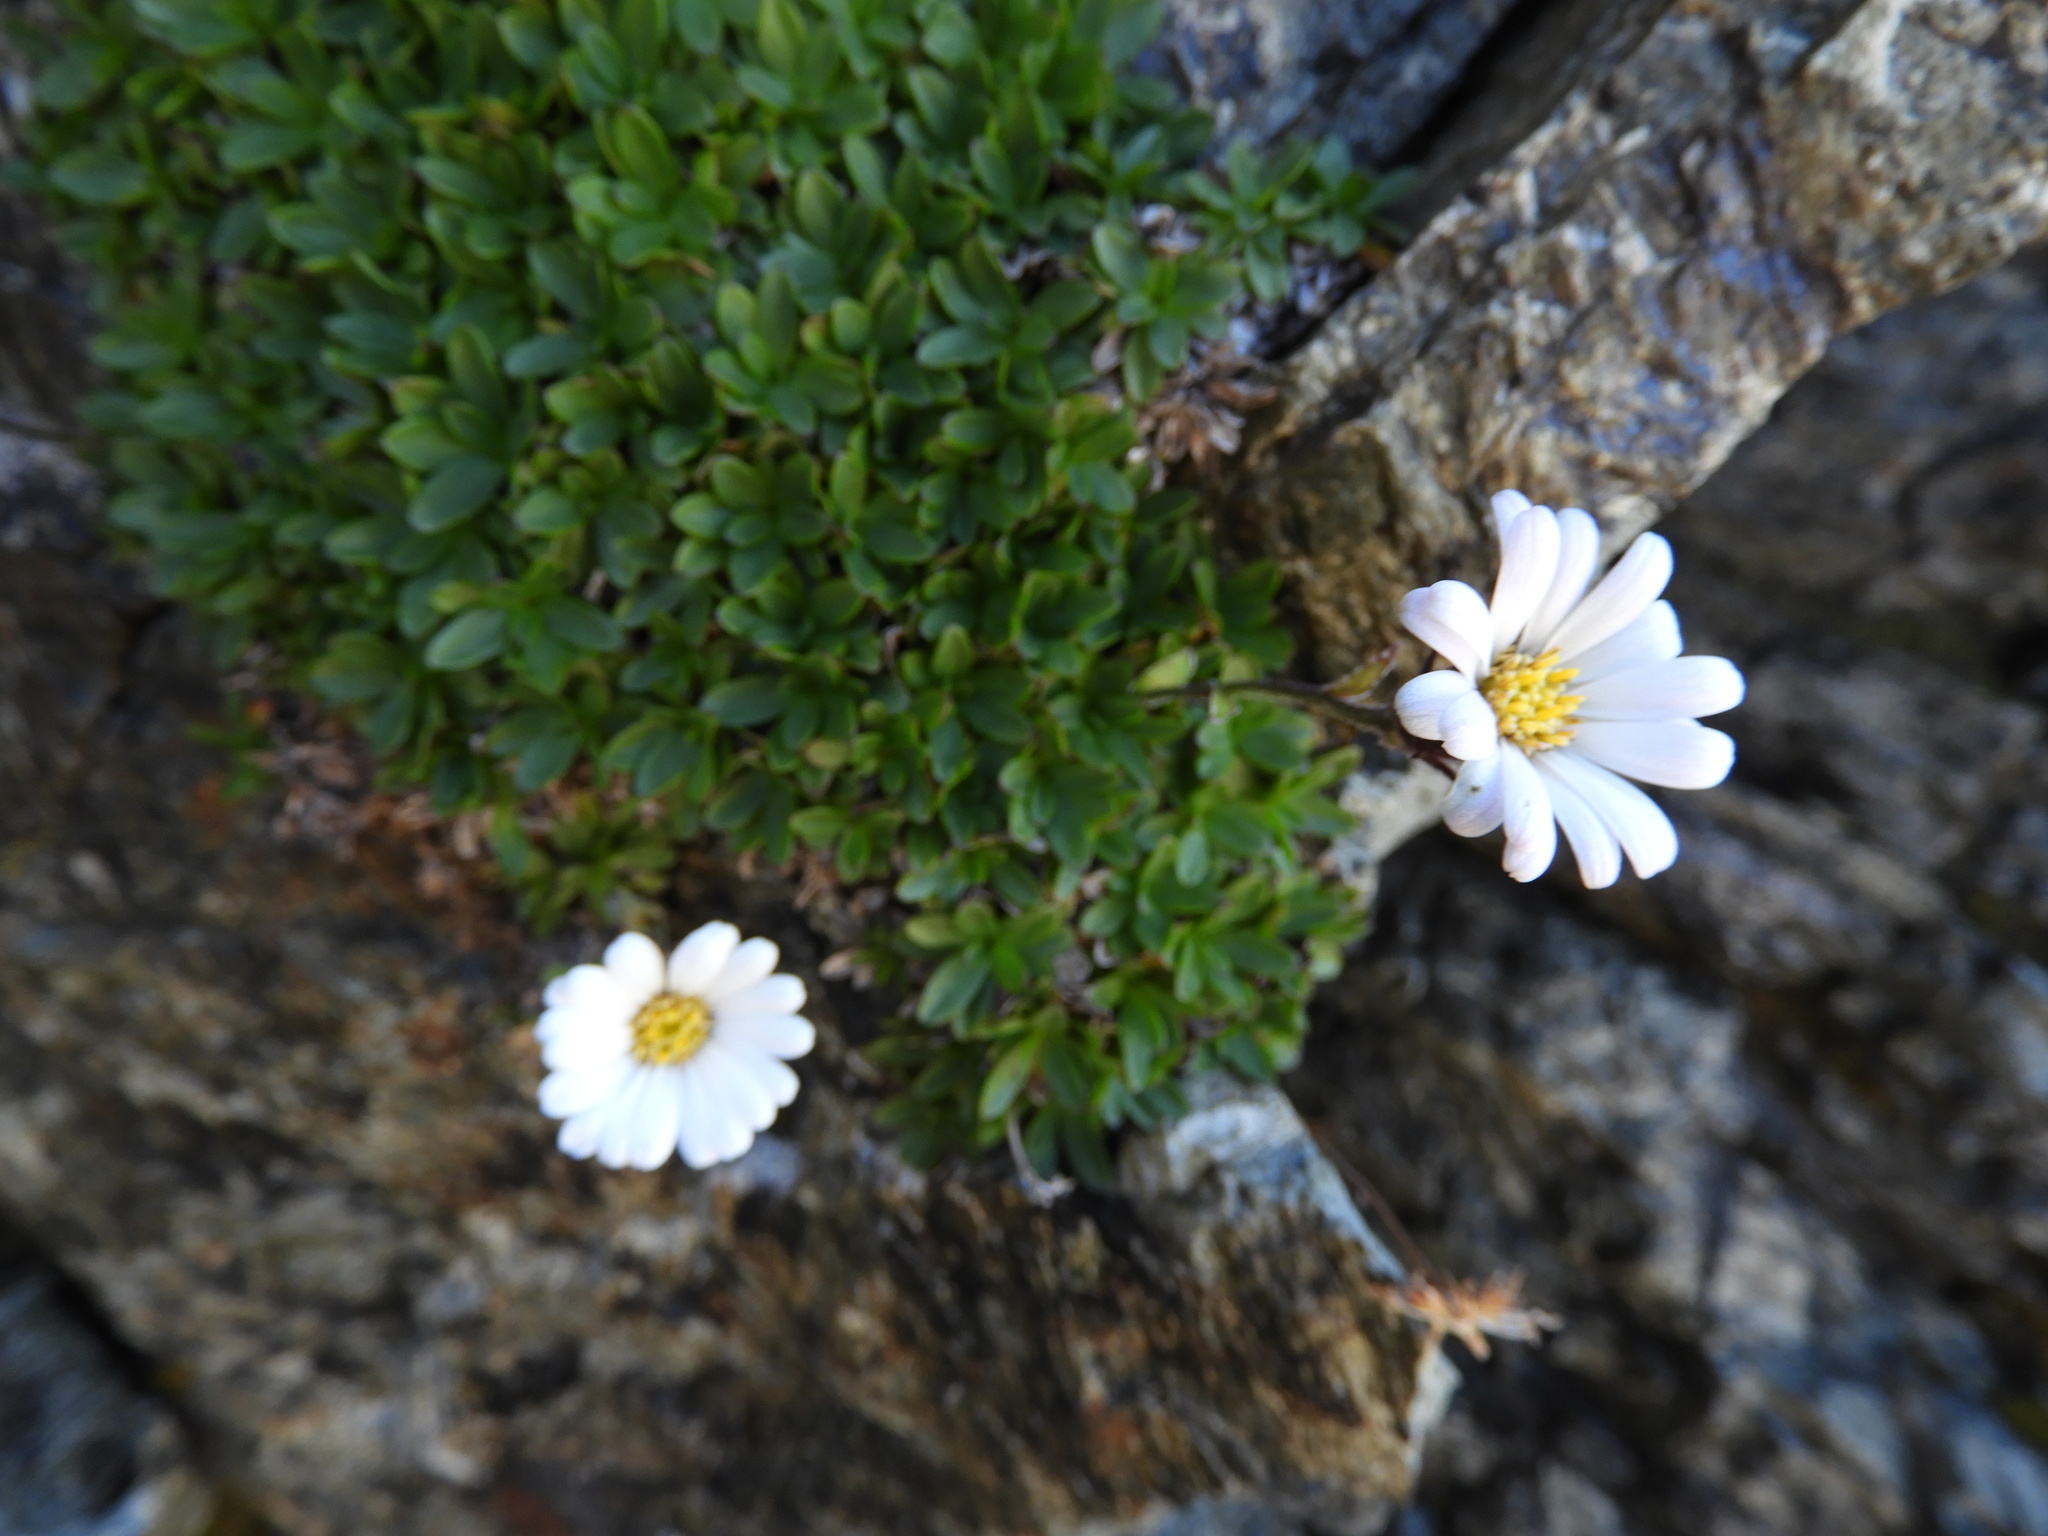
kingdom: Plantae
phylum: Tracheophyta
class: Magnoliopsida
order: Asterales
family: Asteraceae
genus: Celmisia
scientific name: Celmisia thomsonii
